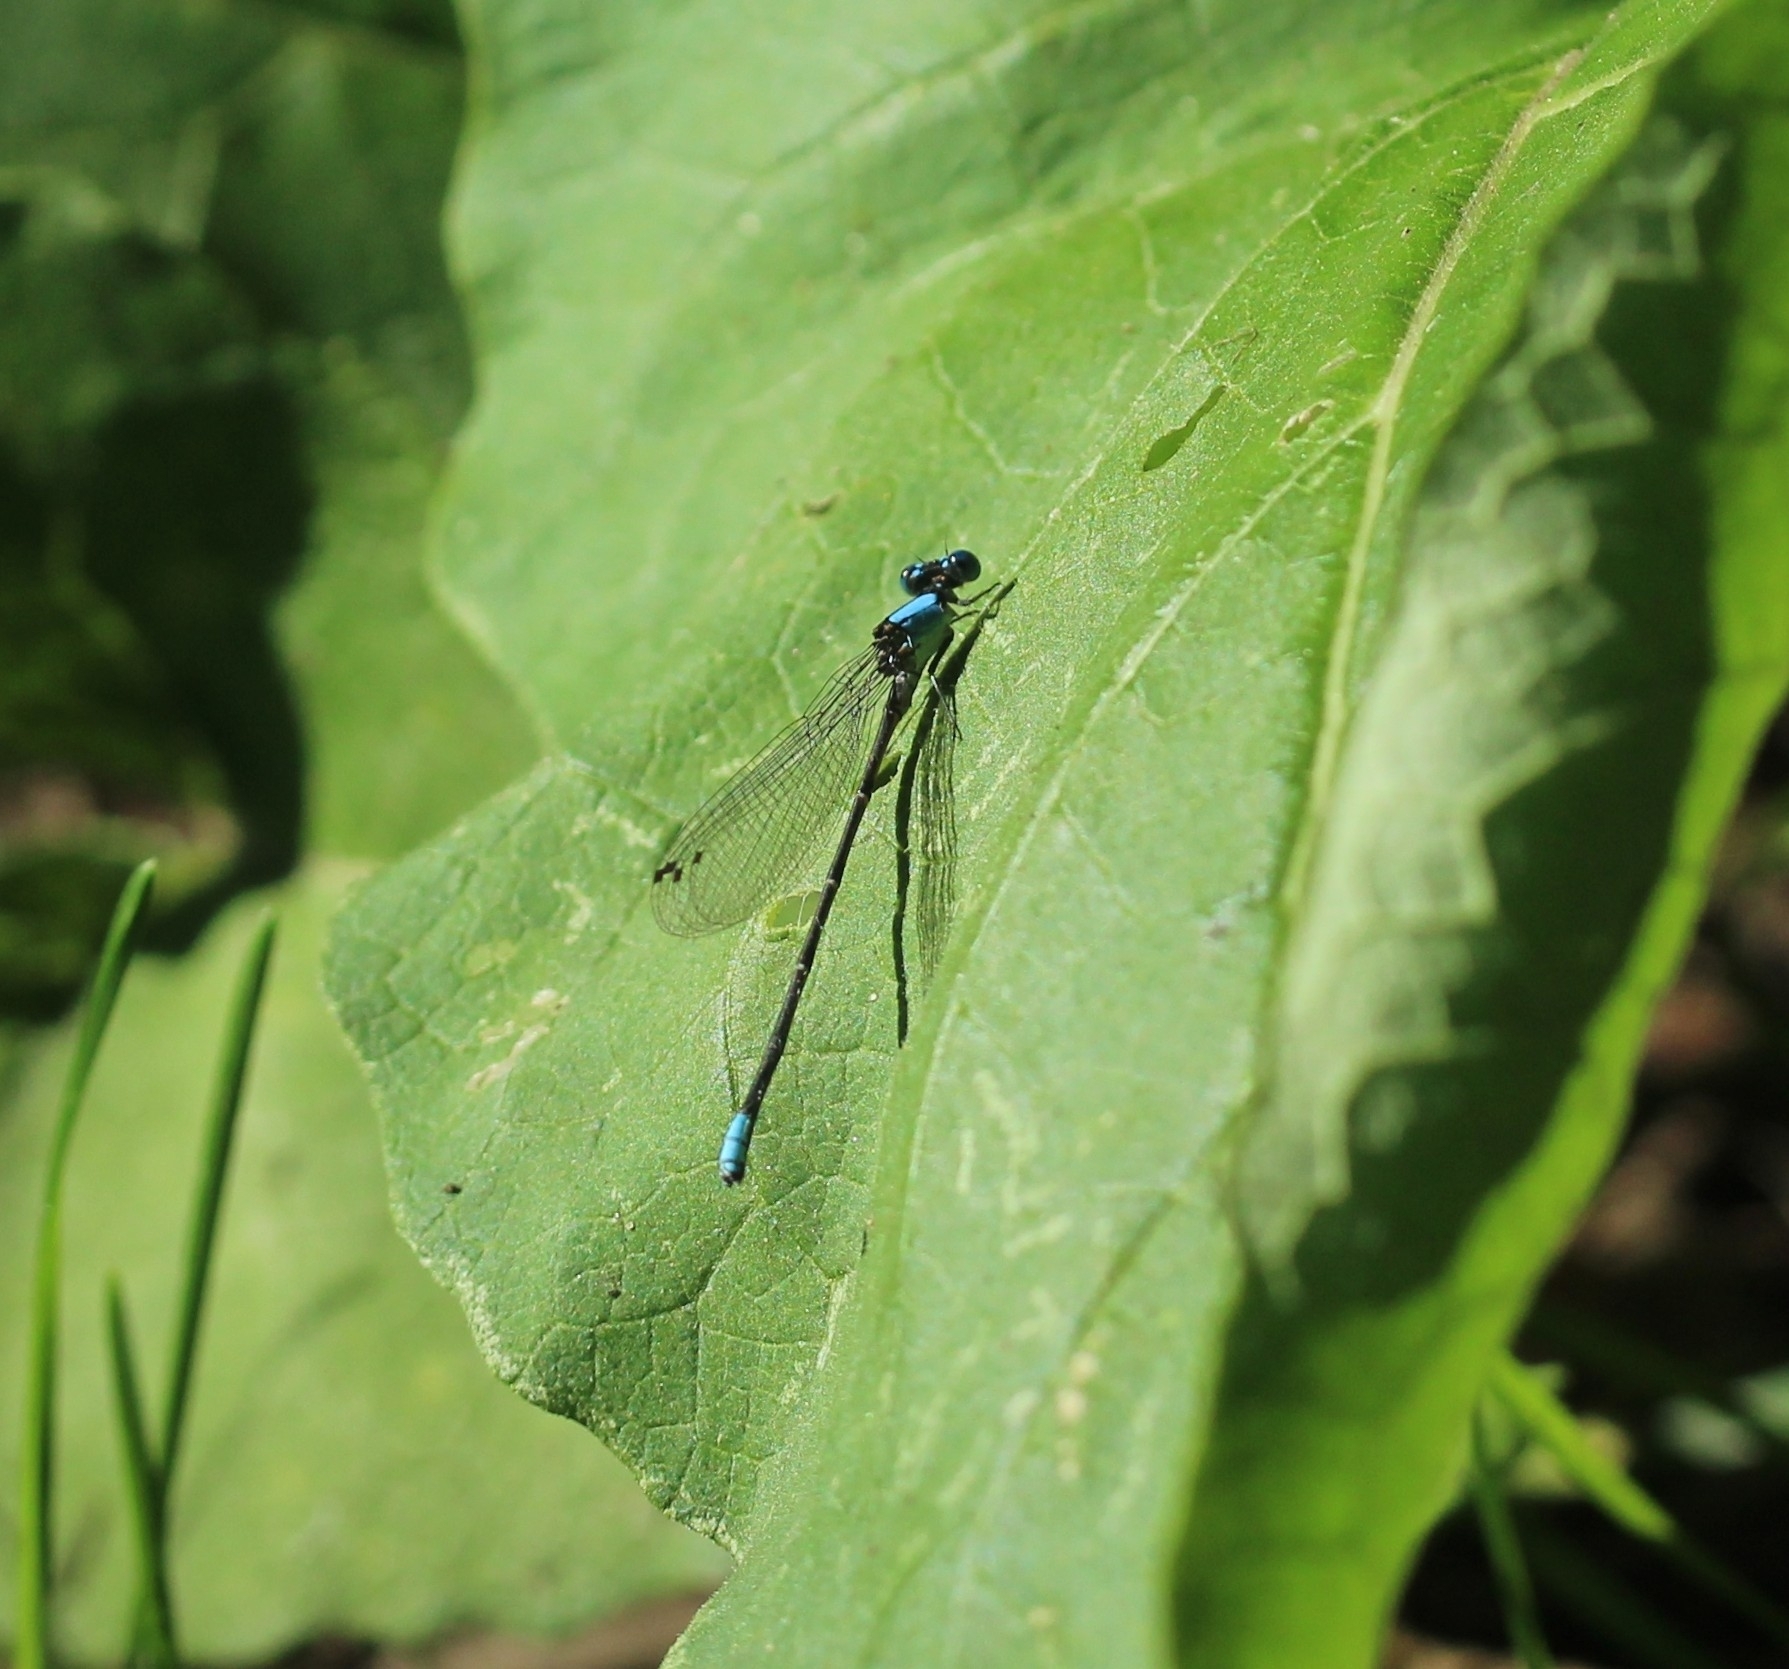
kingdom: Animalia
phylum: Arthropoda
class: Insecta
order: Odonata
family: Coenagrionidae
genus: Argia
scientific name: Argia apicalis
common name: Blue-fronted dancer
